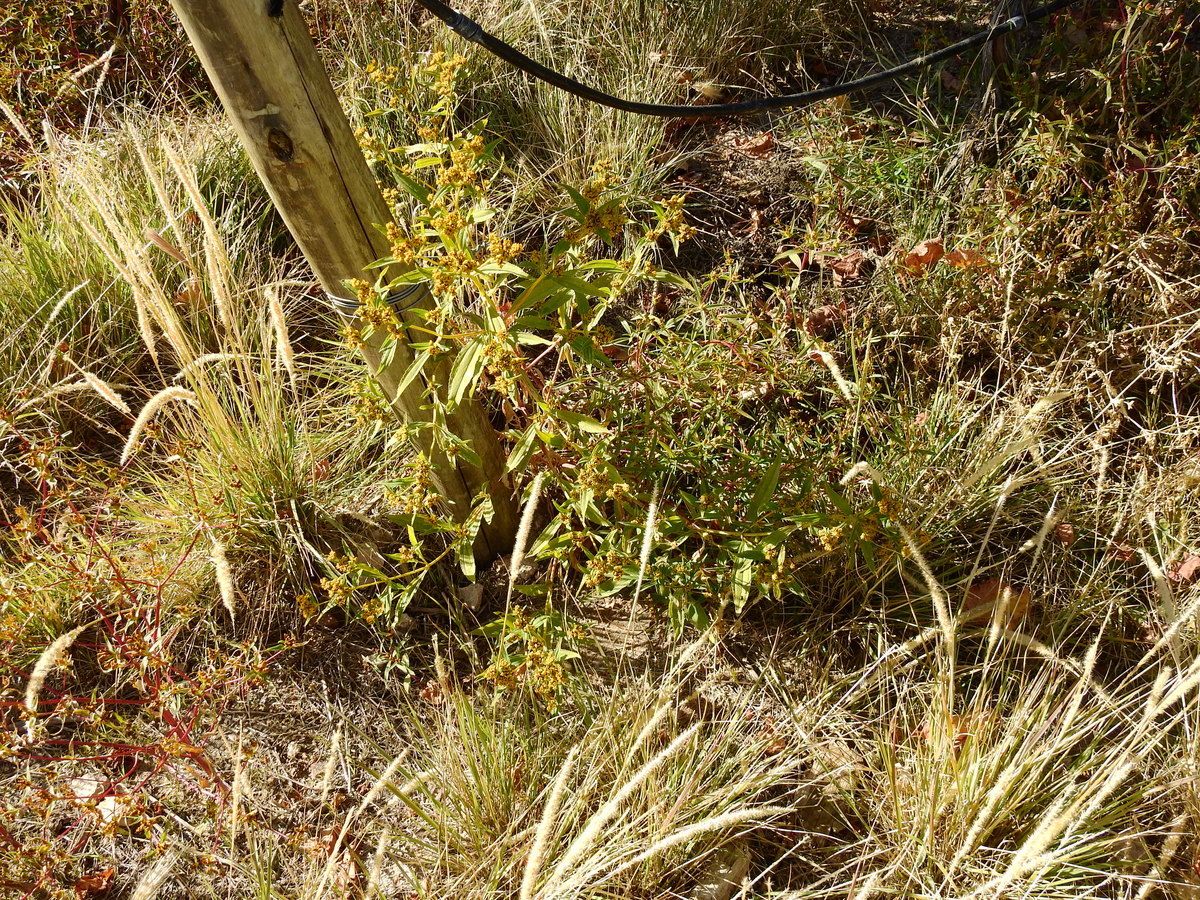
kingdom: Plantae
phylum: Tracheophyta
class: Magnoliopsida
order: Asterales
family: Asteraceae
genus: Flaveria
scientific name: Flaveria bidentis
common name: Coastal plain yellowtops
